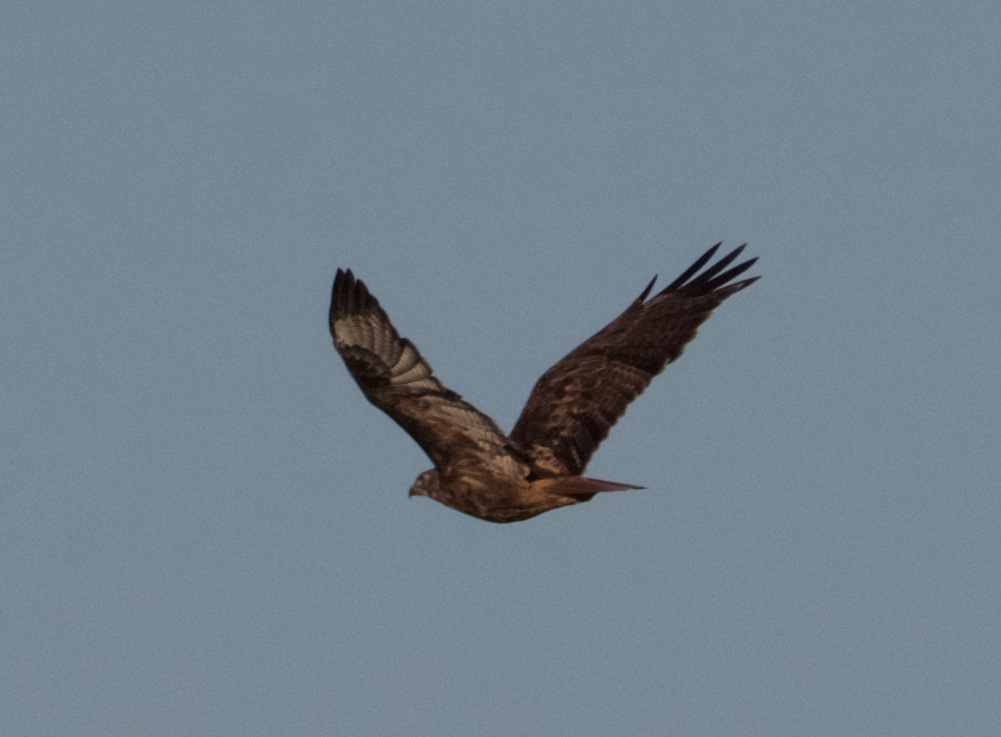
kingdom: Animalia
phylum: Chordata
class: Aves
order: Accipitriformes
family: Accipitridae
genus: Buteo
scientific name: Buteo jamaicensis
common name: Red-tailed hawk
